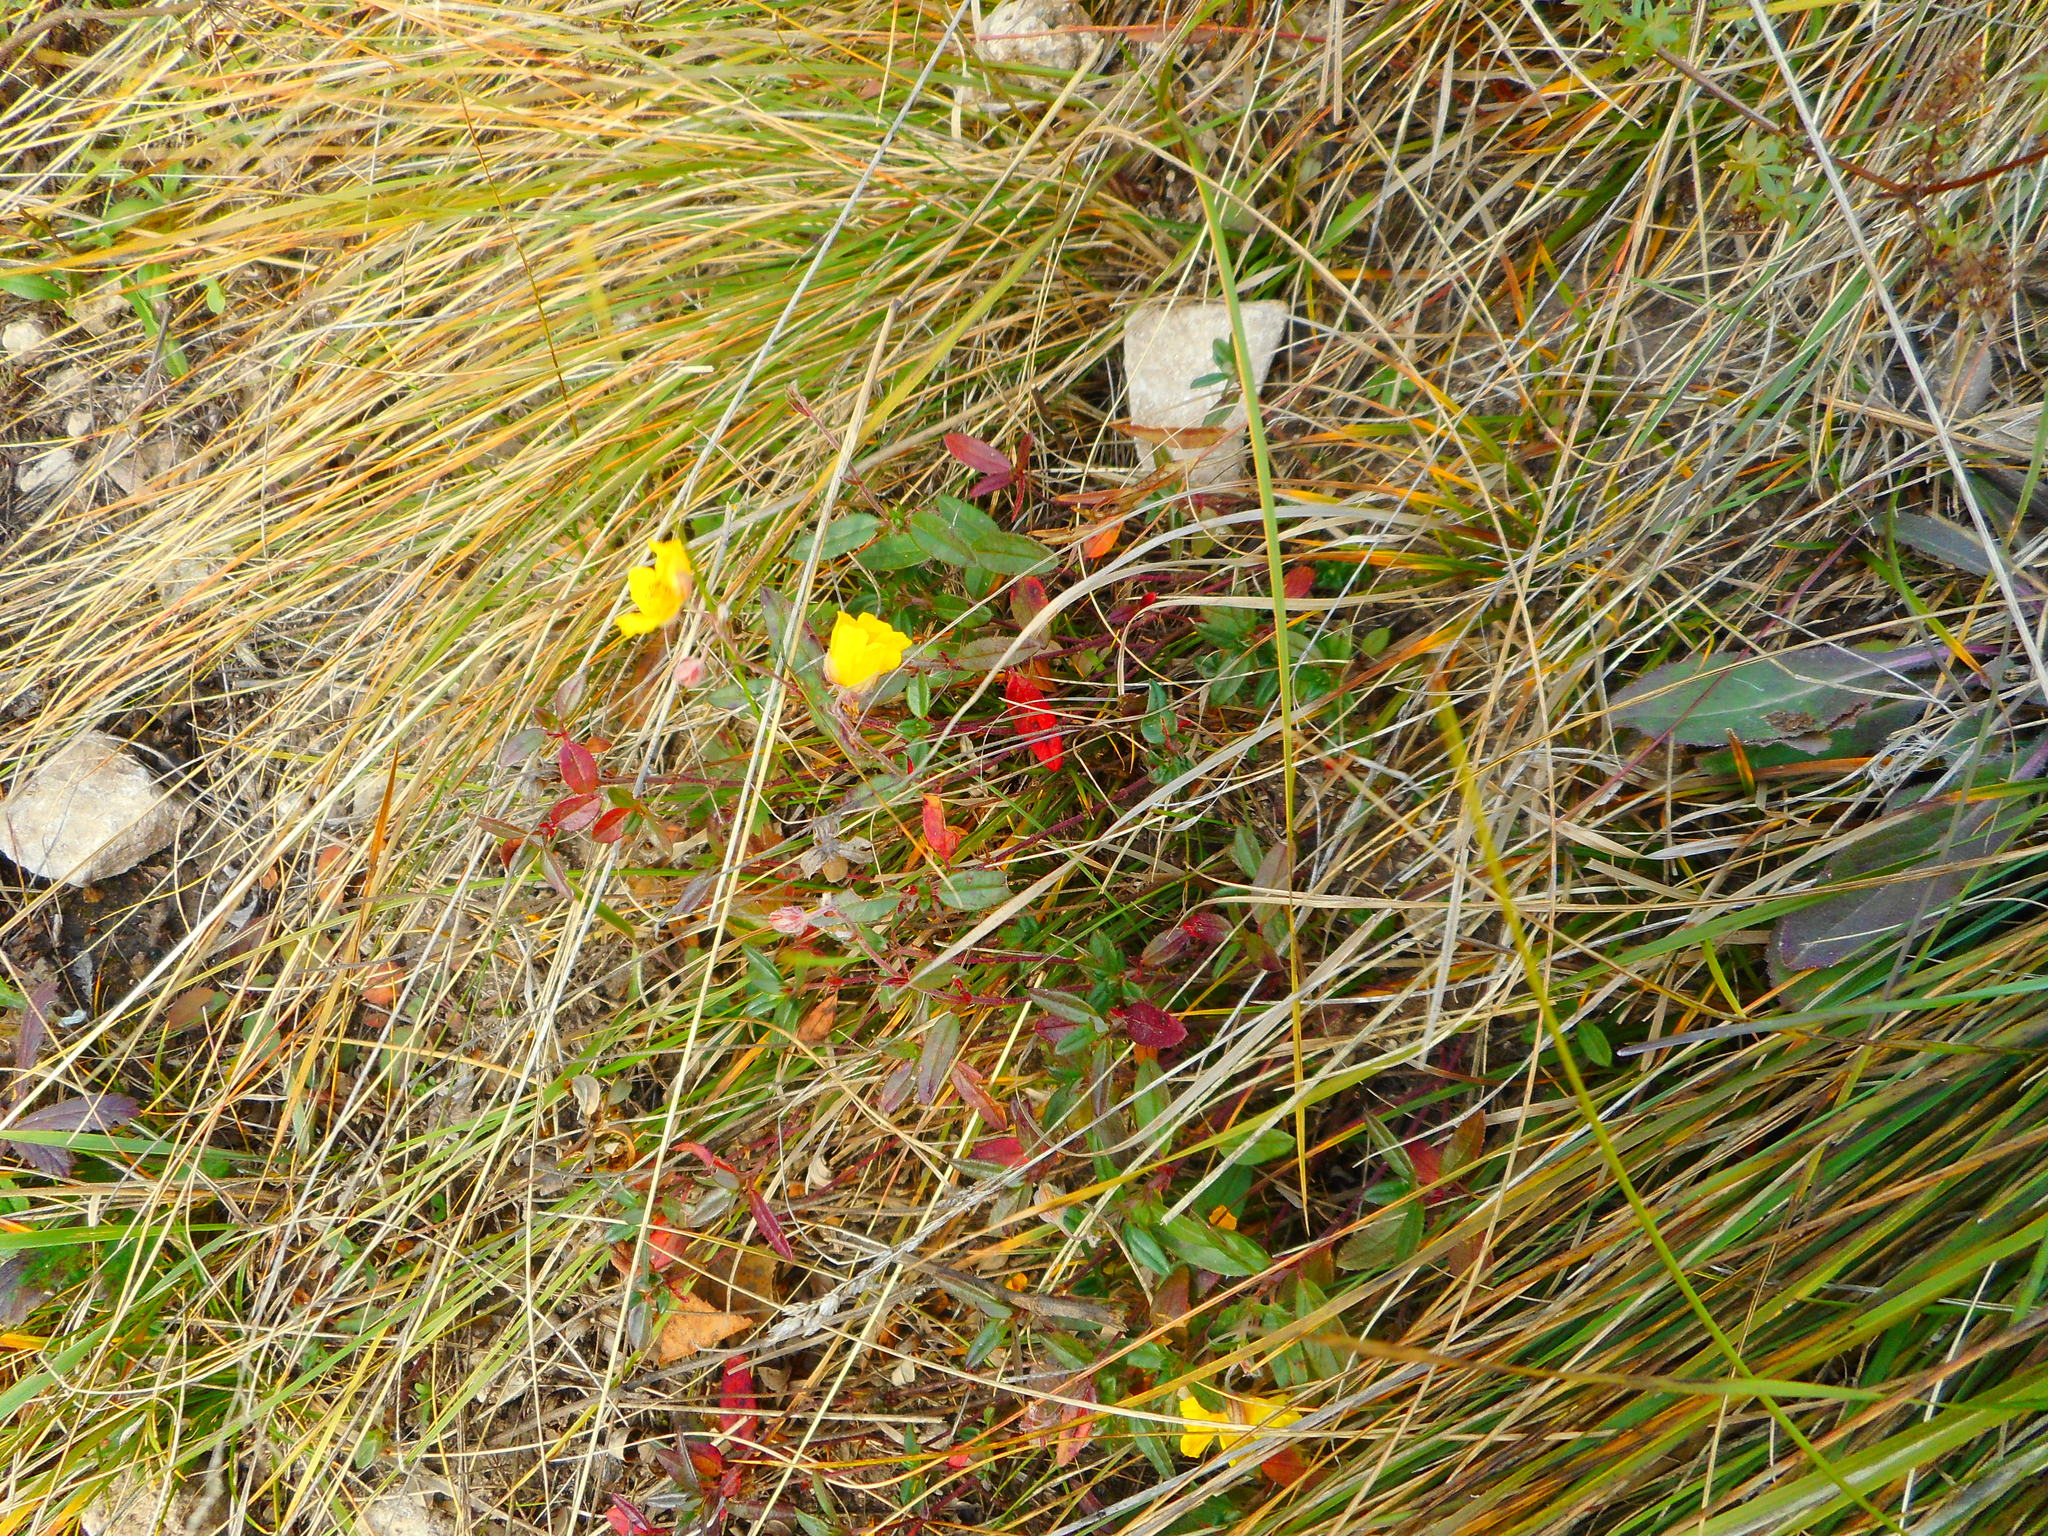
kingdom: Plantae
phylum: Tracheophyta
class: Magnoliopsida
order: Malvales
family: Cistaceae
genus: Helianthemum
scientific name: Helianthemum nummularium
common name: Common rock-rose
